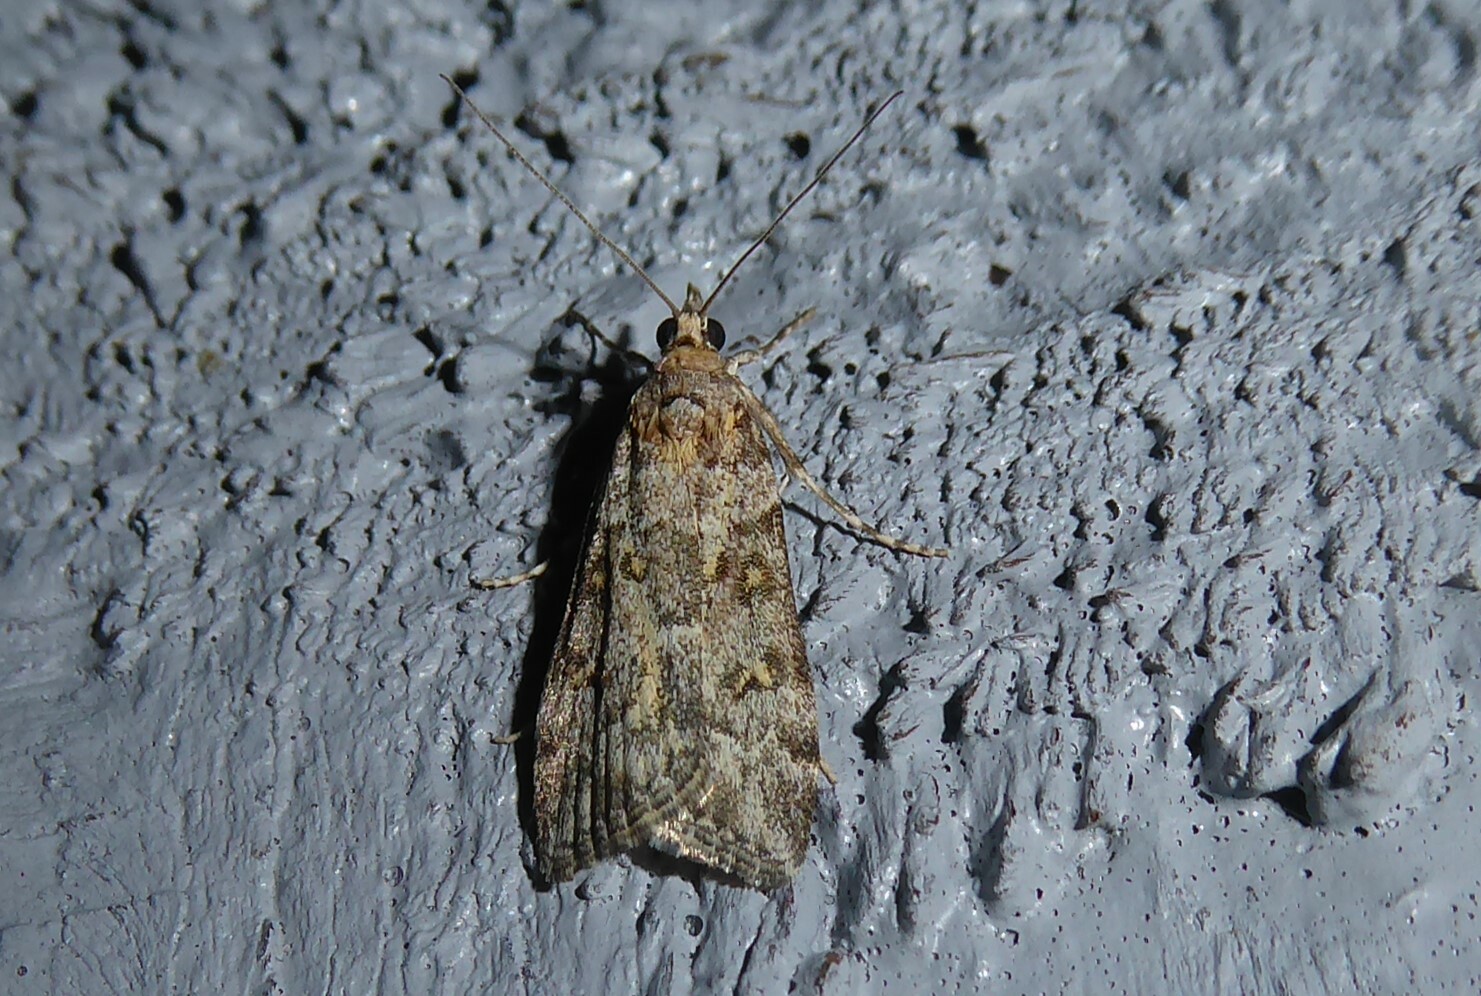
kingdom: Animalia
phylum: Arthropoda
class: Insecta
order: Lepidoptera
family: Crambidae
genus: Scoparia
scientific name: Scoparia tetracycla
